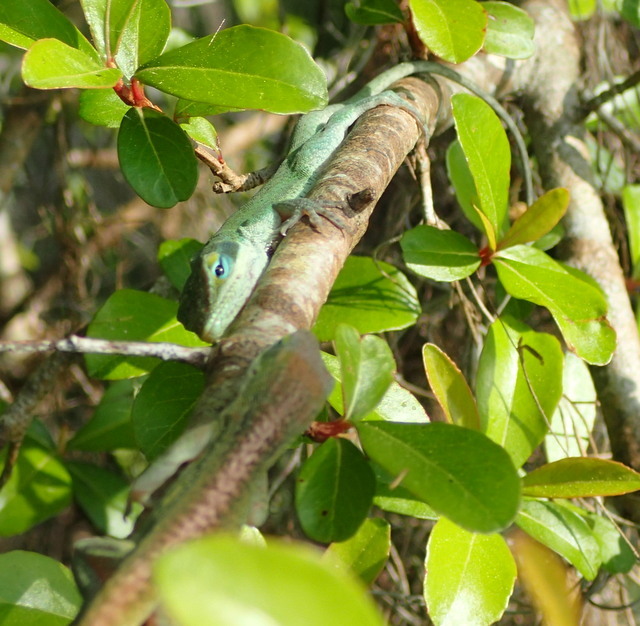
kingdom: Animalia
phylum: Chordata
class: Squamata
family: Dactyloidae
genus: Anolis
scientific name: Anolis carolinensis
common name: Green anole
